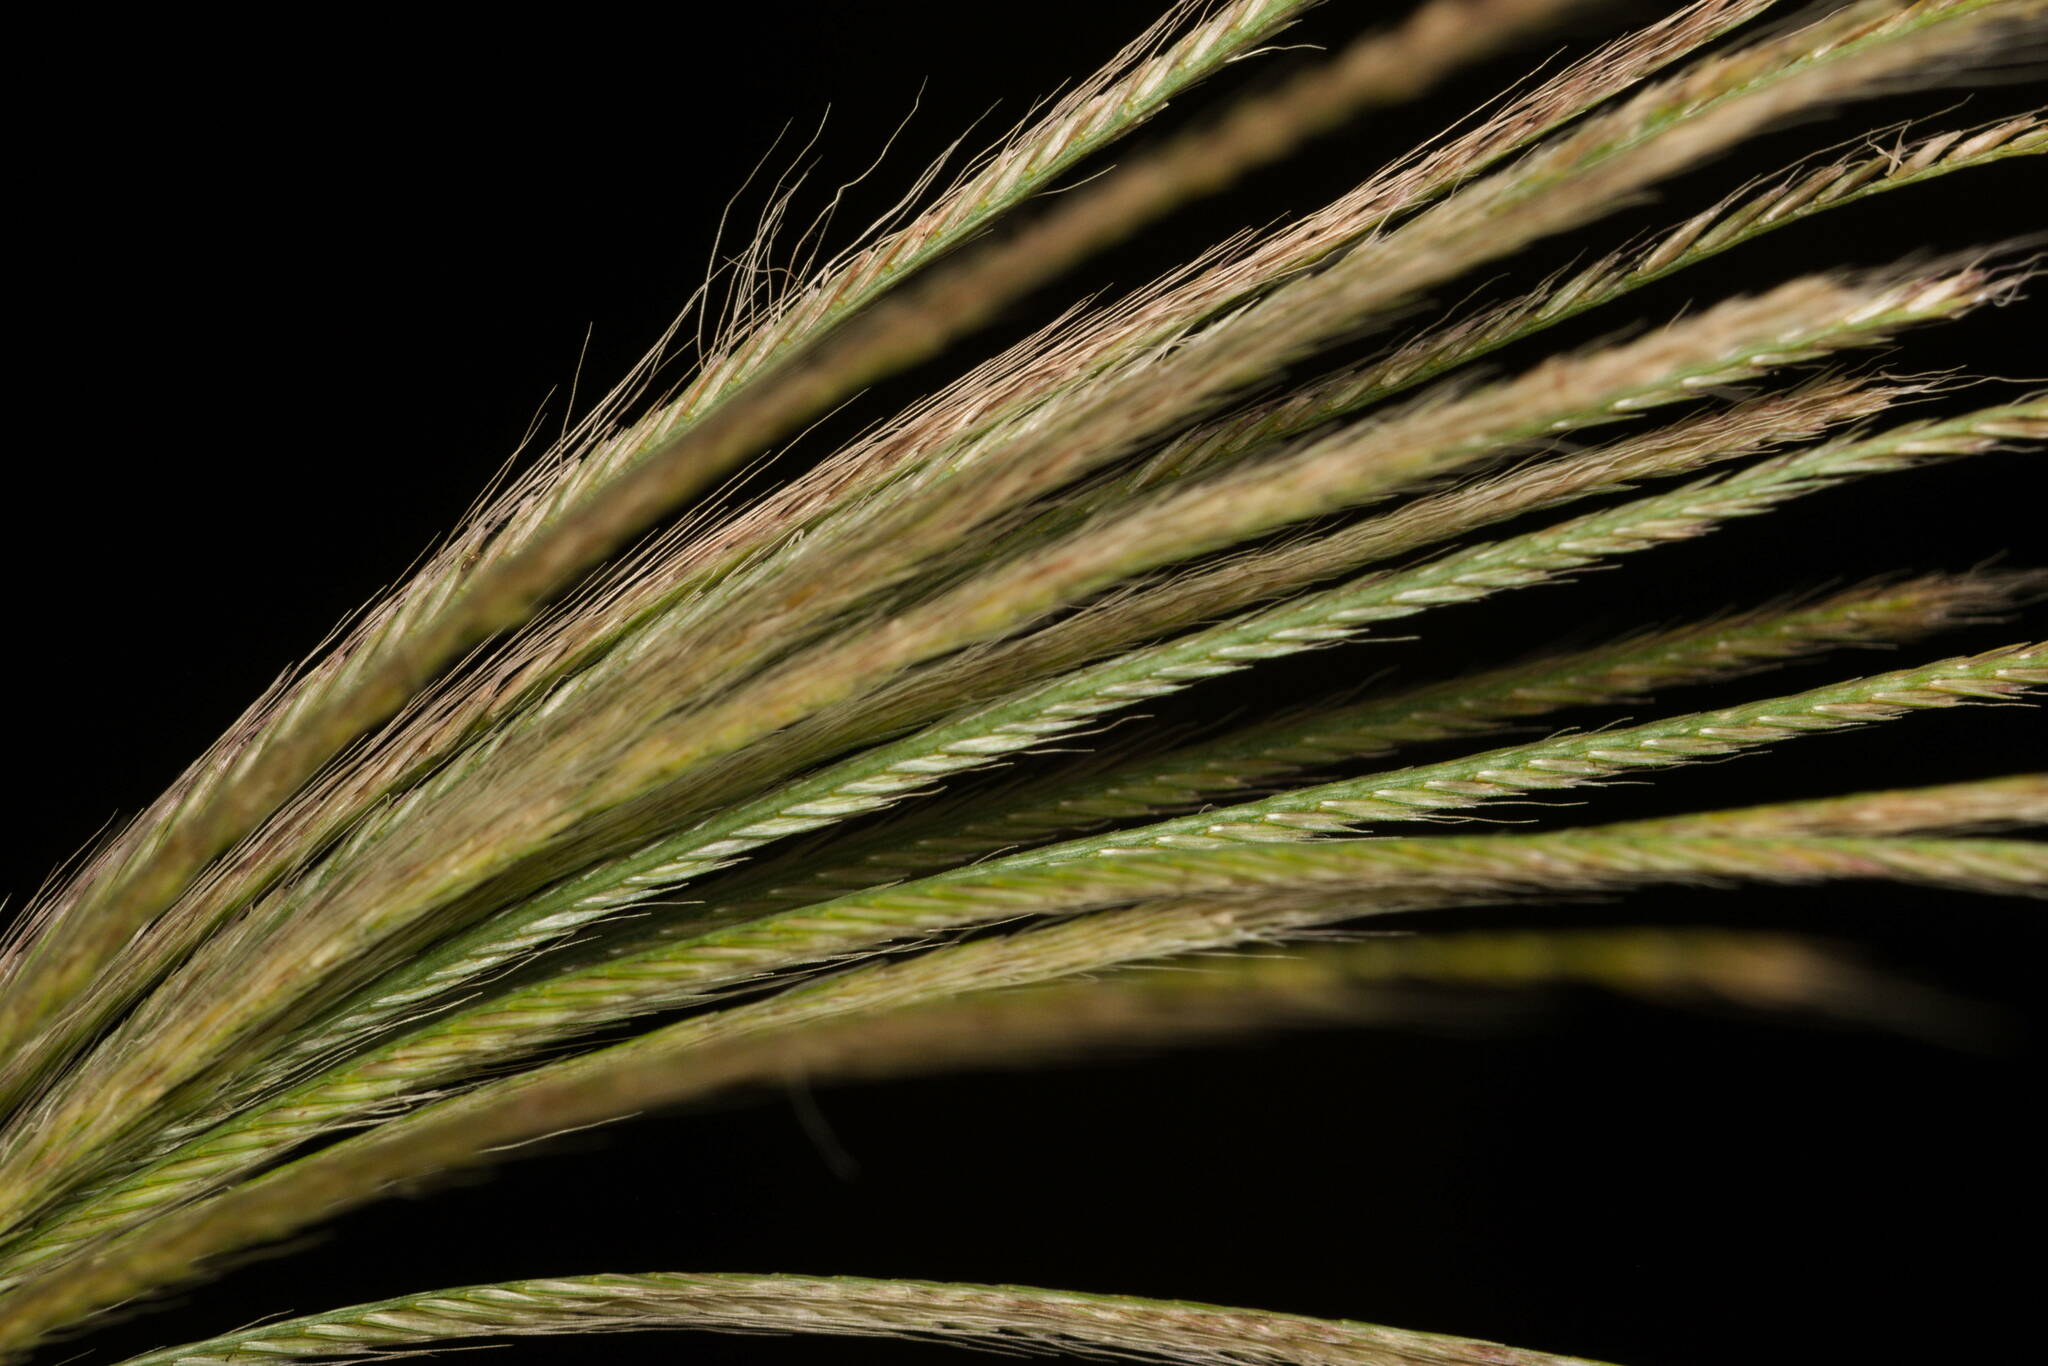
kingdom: Plantae
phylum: Tracheophyta
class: Liliopsida
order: Poales
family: Poaceae
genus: Chloris
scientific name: Chloris radiata
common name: Radiate fingergrass
